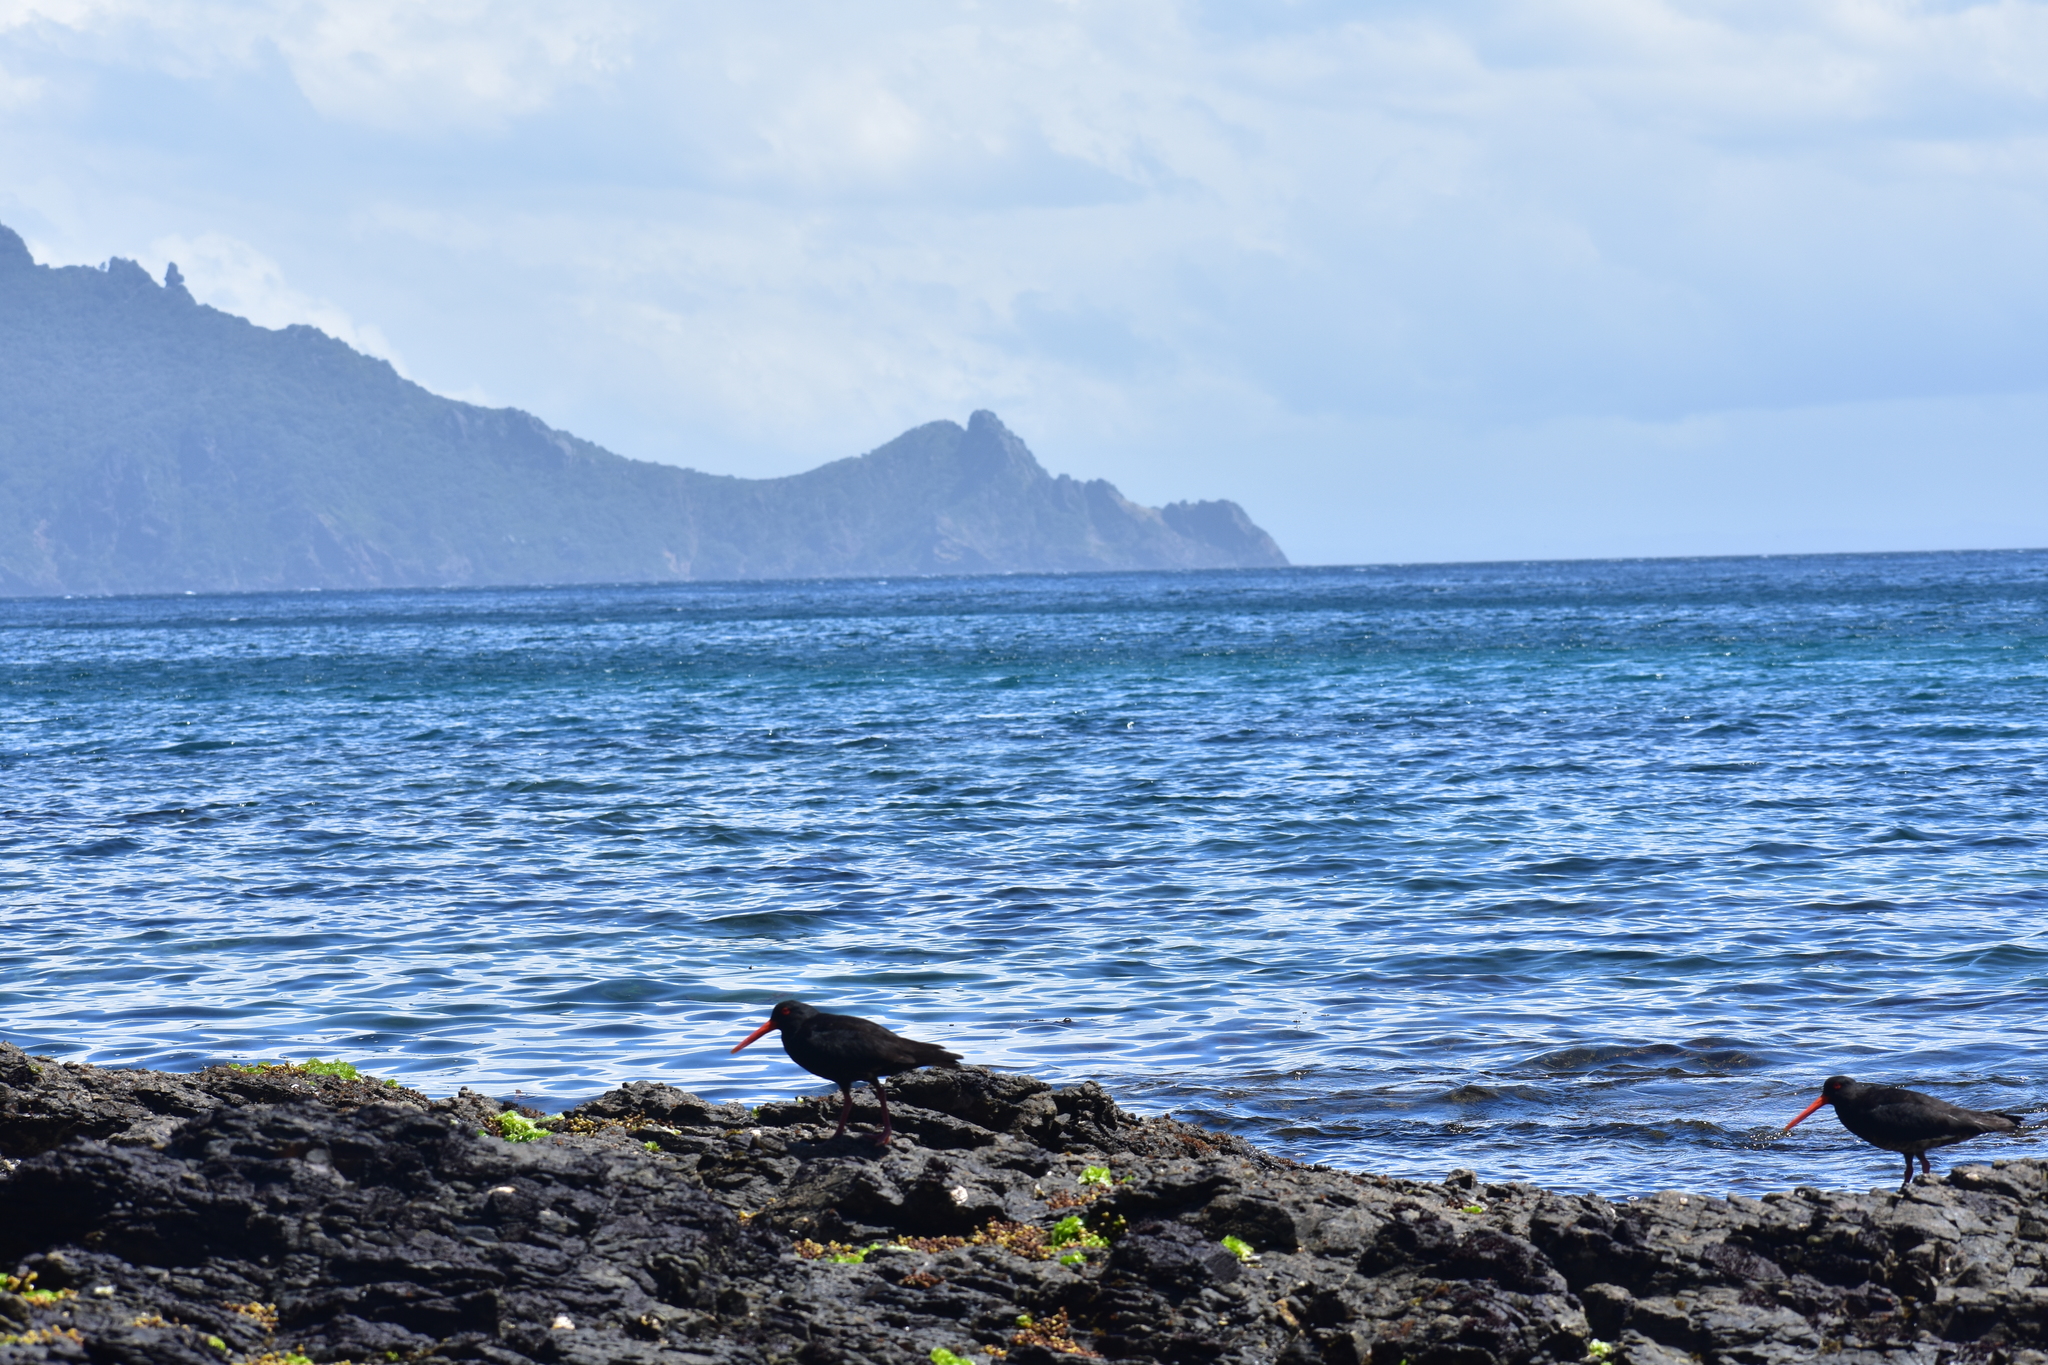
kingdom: Animalia
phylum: Chordata
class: Aves
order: Charadriiformes
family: Haematopodidae
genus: Haematopus
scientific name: Haematopus unicolor
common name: Variable oystercatcher
